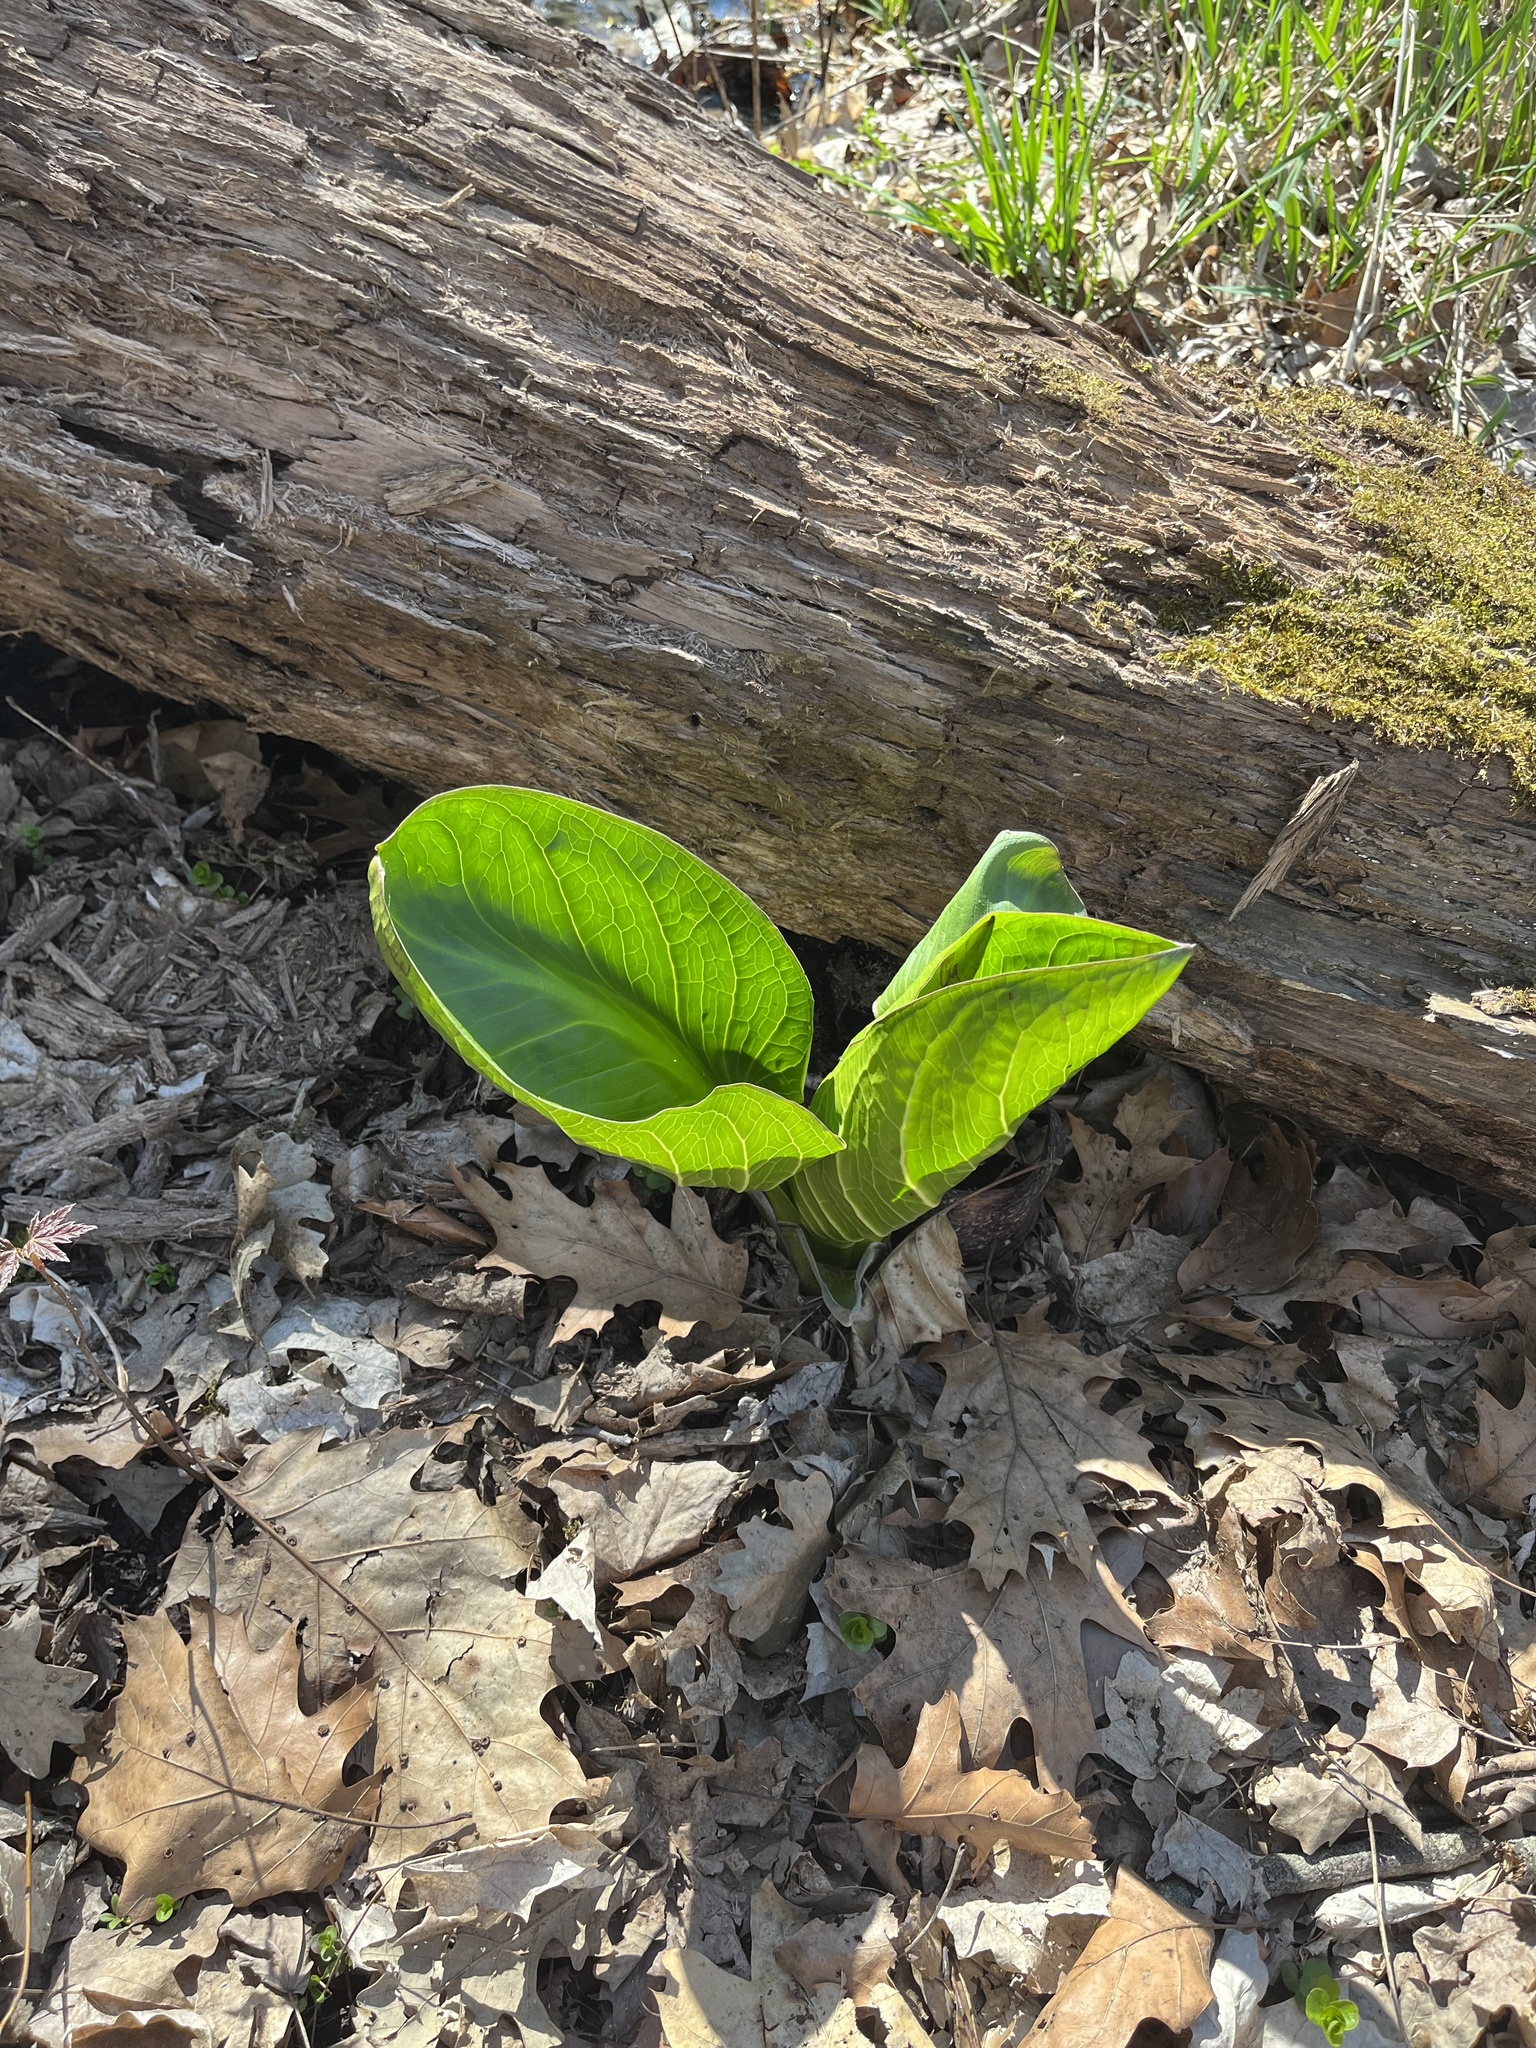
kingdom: Plantae
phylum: Tracheophyta
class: Liliopsida
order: Alismatales
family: Araceae
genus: Symplocarpus
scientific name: Symplocarpus foetidus
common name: Eastern skunk cabbage
